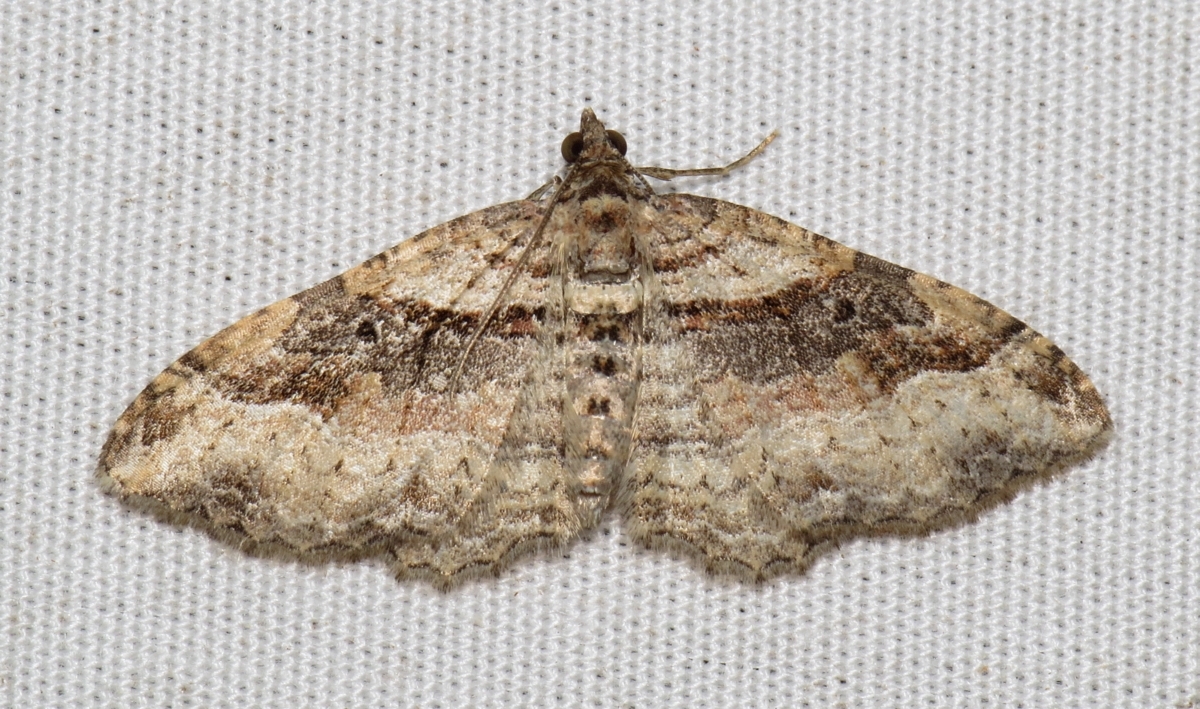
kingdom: Animalia
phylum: Arthropoda
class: Insecta
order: Lepidoptera
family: Geometridae
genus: Costaconvexa
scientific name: Costaconvexa centrostrigaria
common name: Bent-line carpet
